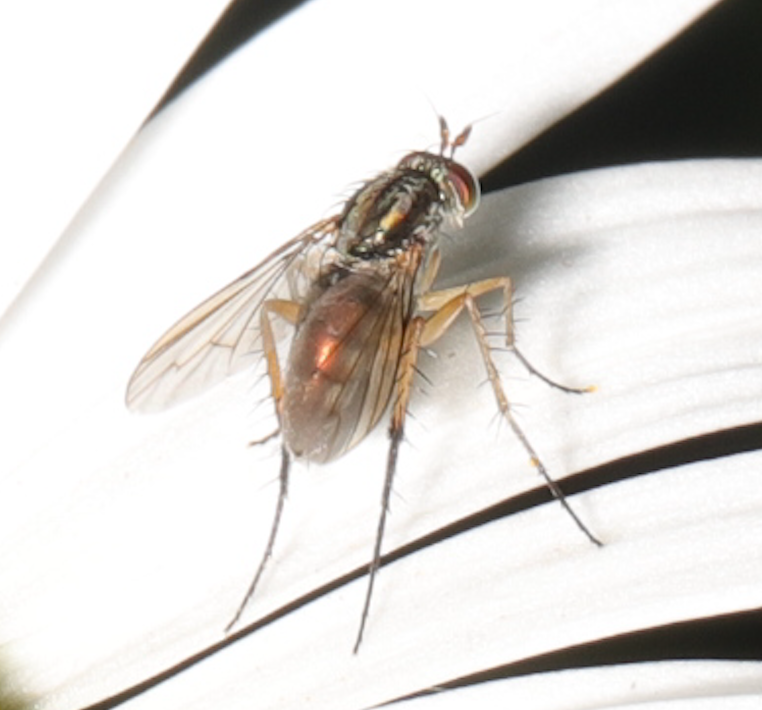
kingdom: Animalia
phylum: Arthropoda
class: Insecta
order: Diptera
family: Dolichopodidae
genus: Dolichopus
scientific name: Dolichopus reflectus
